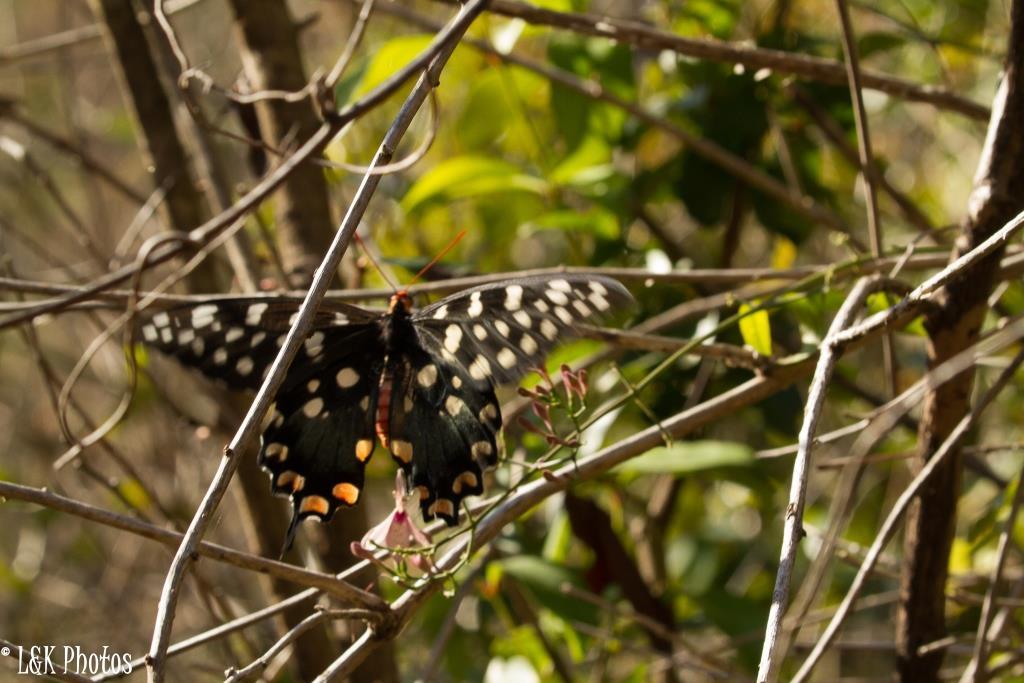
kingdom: Animalia
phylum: Arthropoda
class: Insecta
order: Lepidoptera
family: Papilionidae
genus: Pharmacophagus
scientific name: Pharmacophagus antenor
